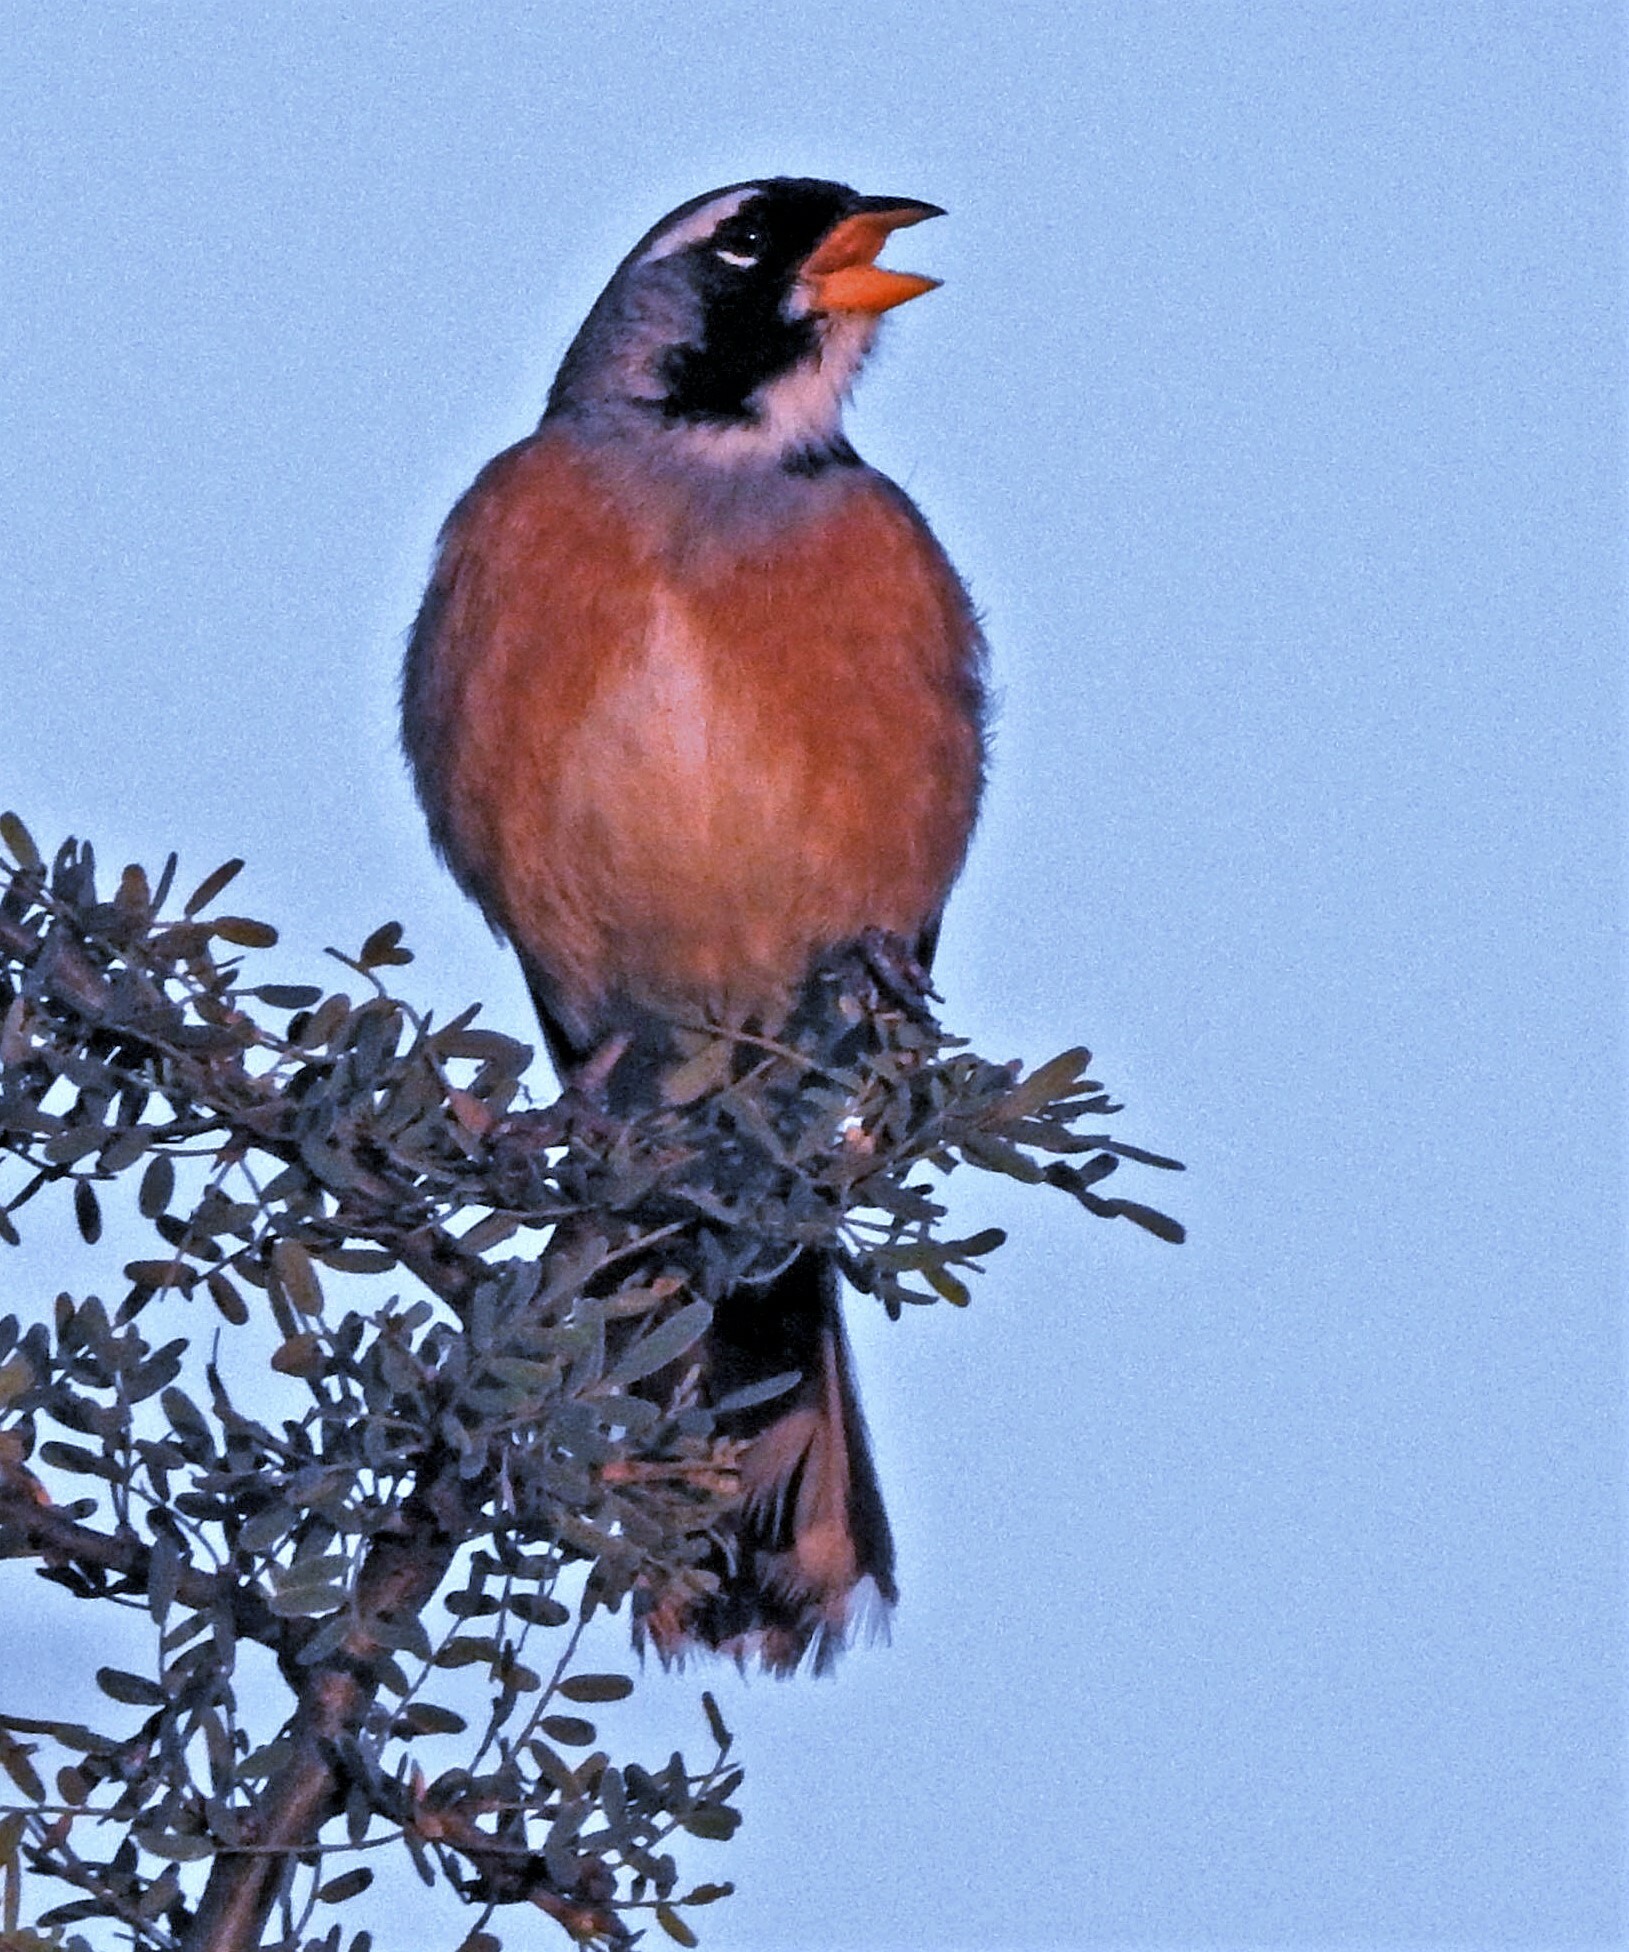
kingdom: Animalia
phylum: Chordata
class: Aves
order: Passeriformes
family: Thraupidae
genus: Saltatricula
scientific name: Saltatricula multicolor
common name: Many-colored chaco finch
